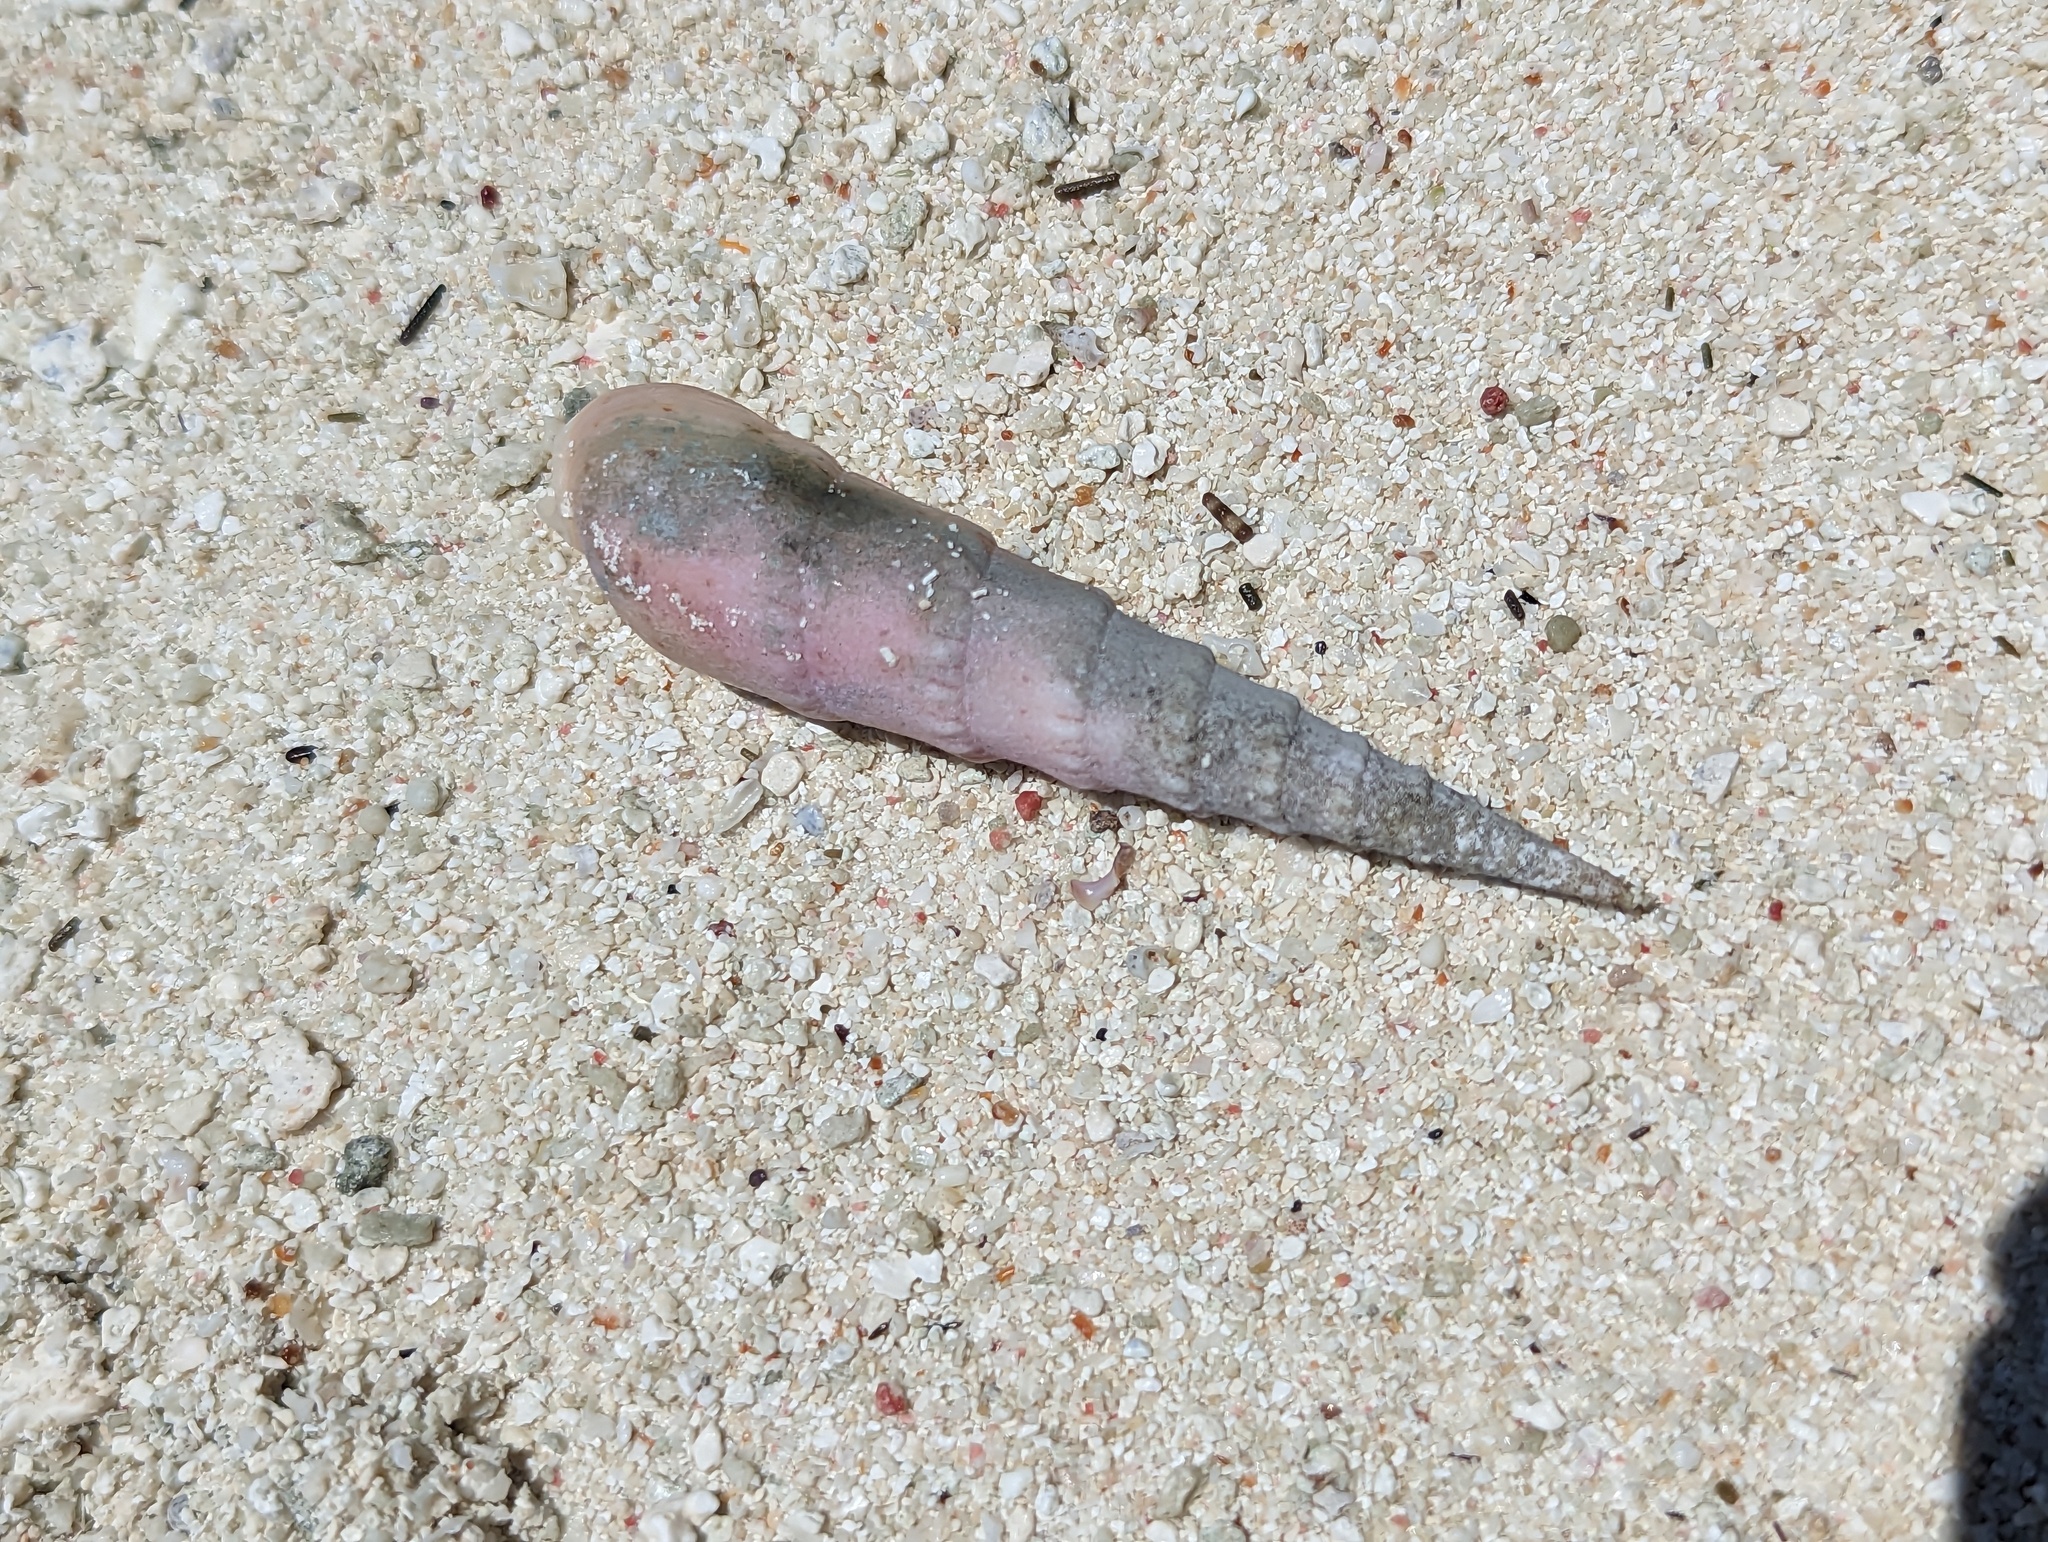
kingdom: Animalia
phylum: Mollusca
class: Gastropoda
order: Neogastropoda
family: Terebridae
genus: Oxymeris
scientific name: Oxymeris crenulata
